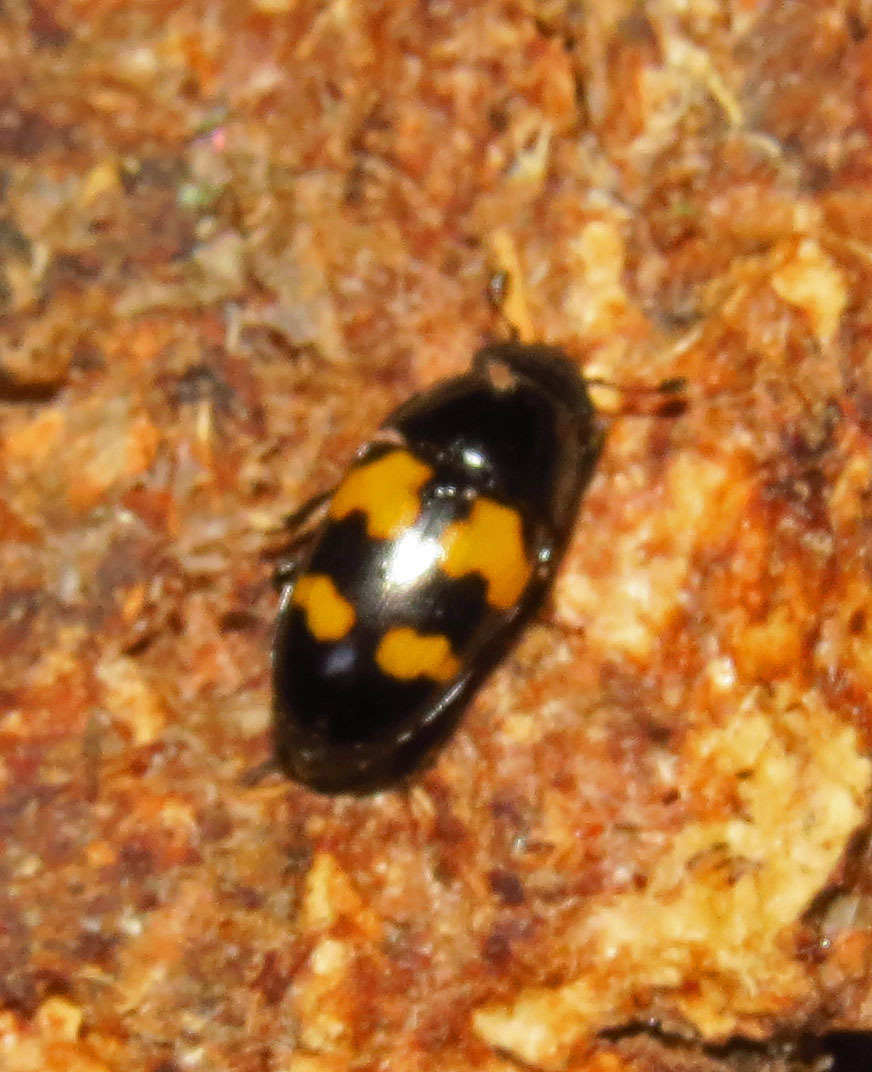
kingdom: Animalia
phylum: Arthropoda
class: Insecta
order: Coleoptera
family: Nitidulidae
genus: Glischrochilus
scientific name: Glischrochilus fasciatus
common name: Picnic beetle
